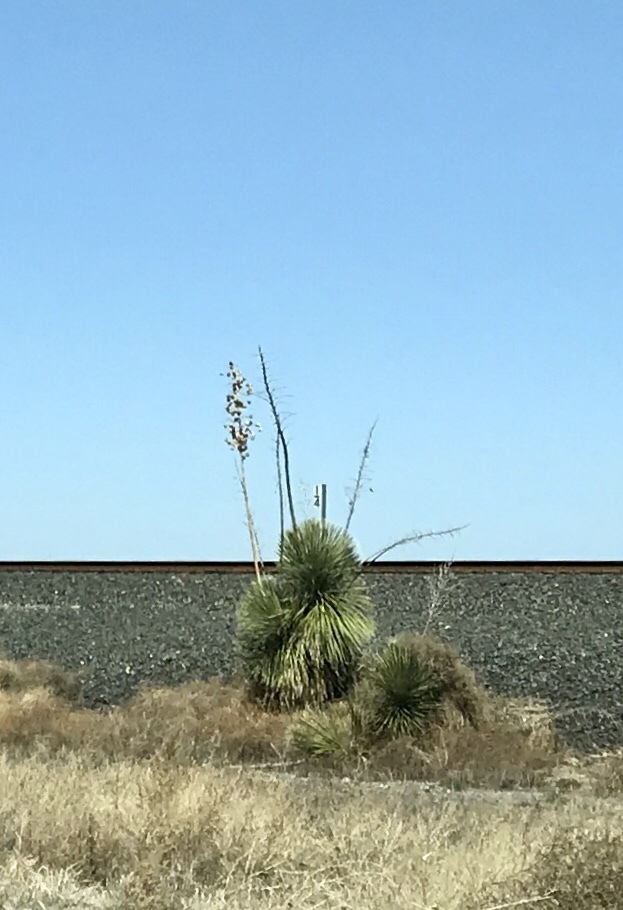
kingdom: Plantae
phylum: Tracheophyta
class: Liliopsida
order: Asparagales
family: Asparagaceae
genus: Yucca
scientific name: Yucca elata
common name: Palmella
